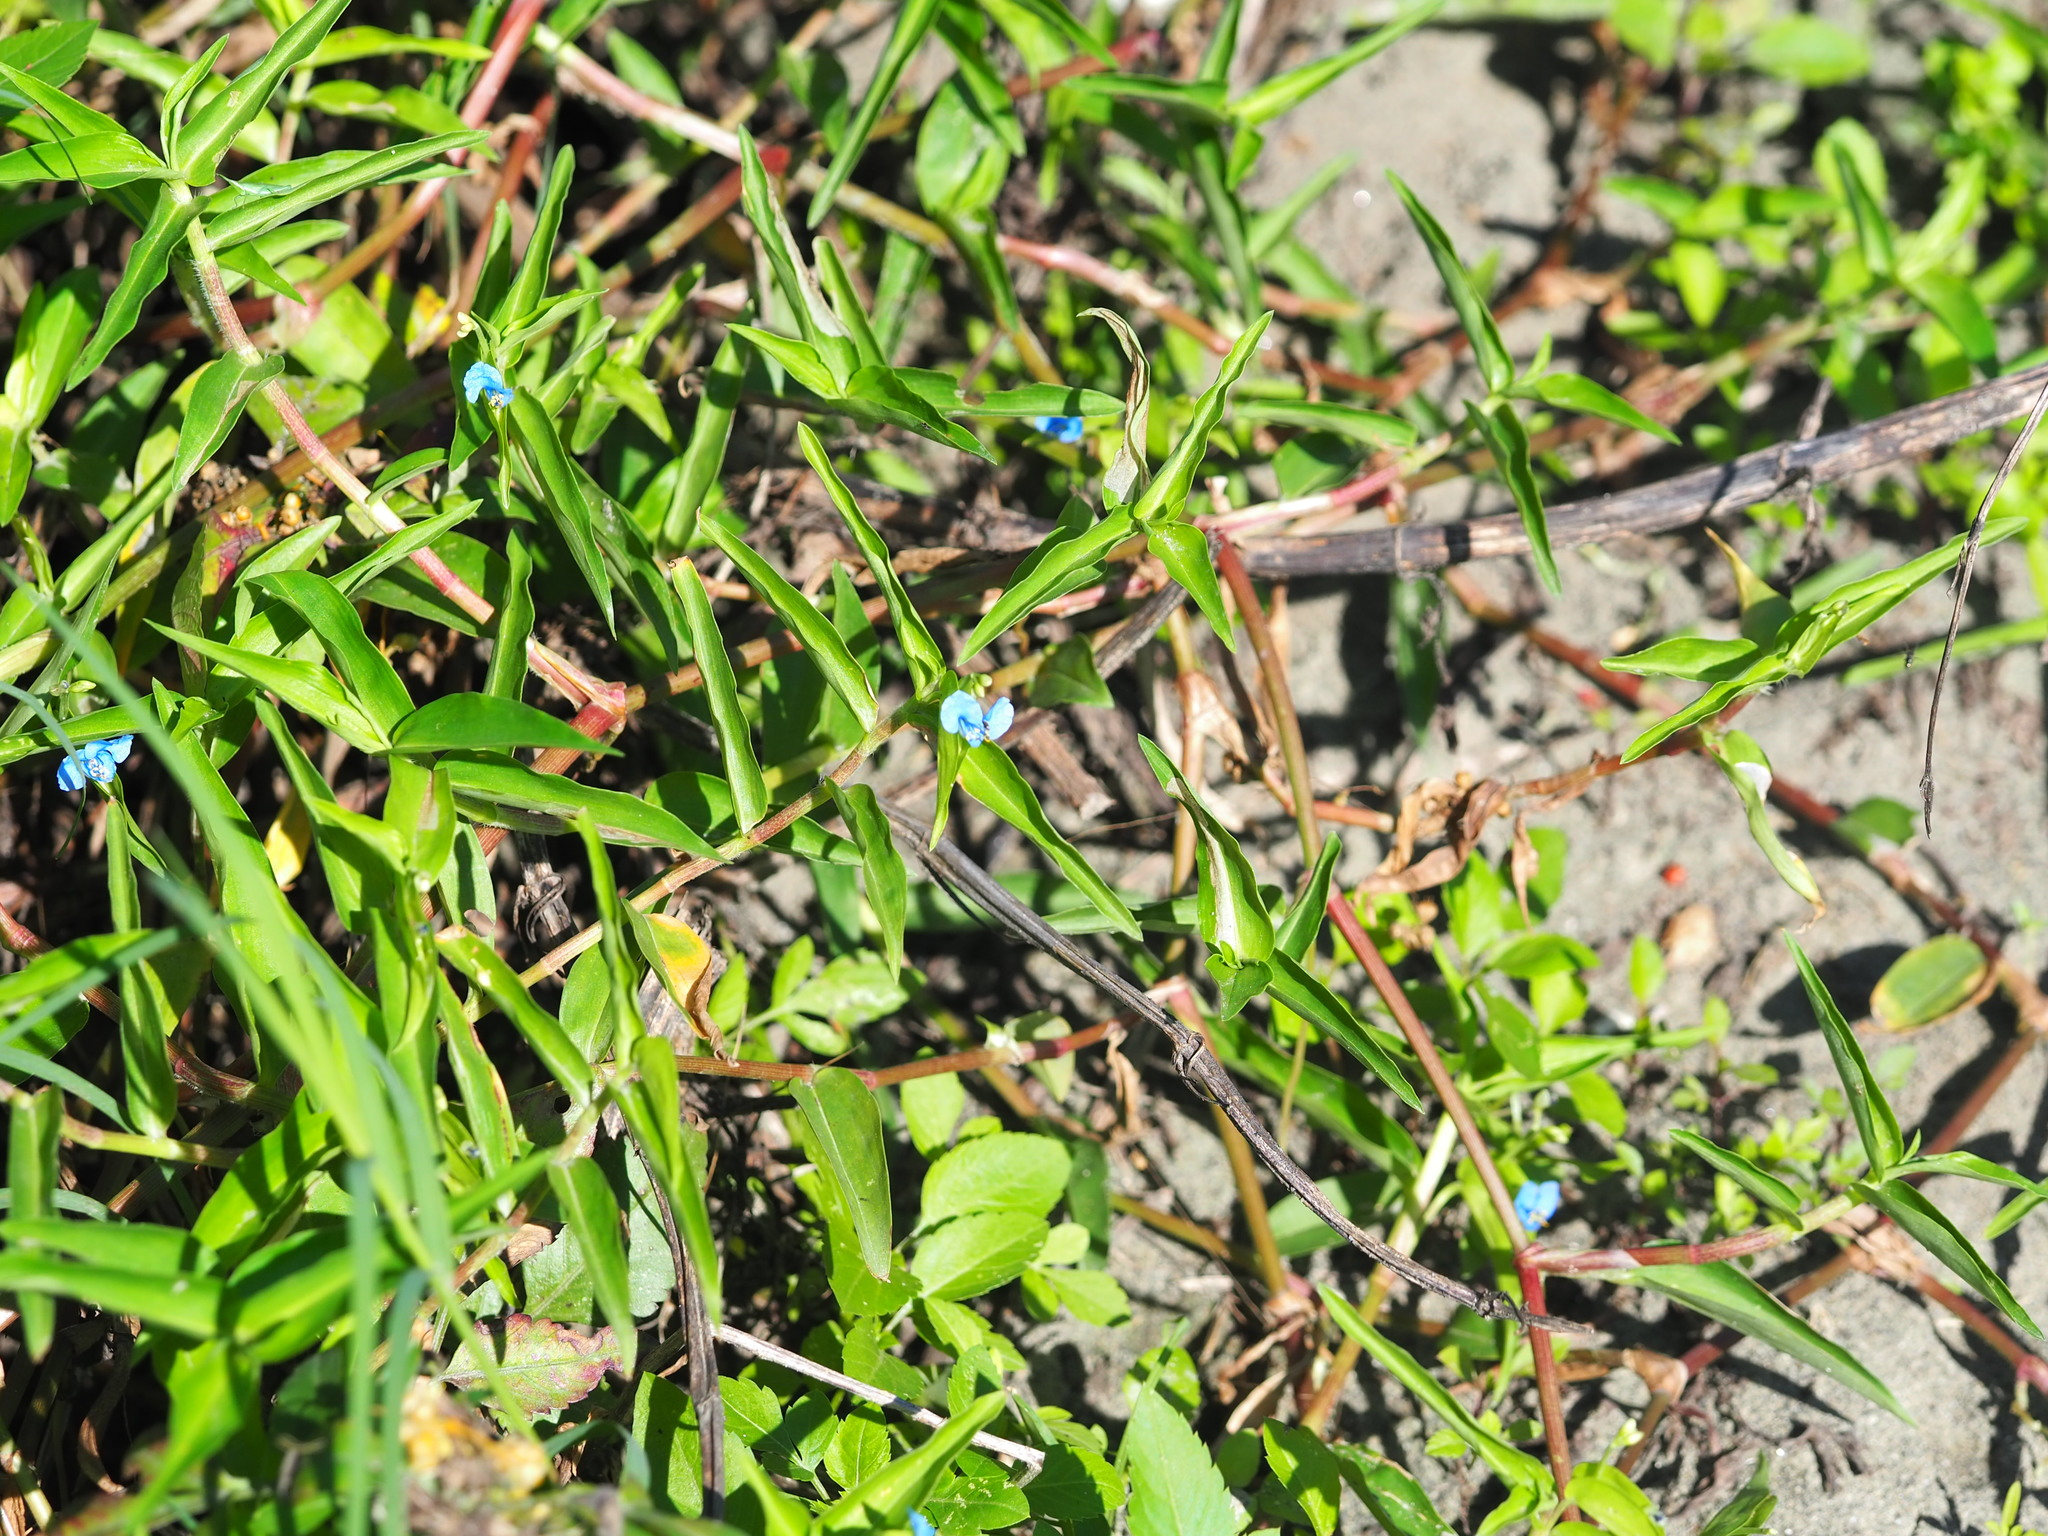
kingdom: Plantae
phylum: Tracheophyta
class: Liliopsida
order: Commelinales
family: Commelinaceae
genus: Commelina
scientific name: Commelina diffusa
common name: Climbing dayflower
